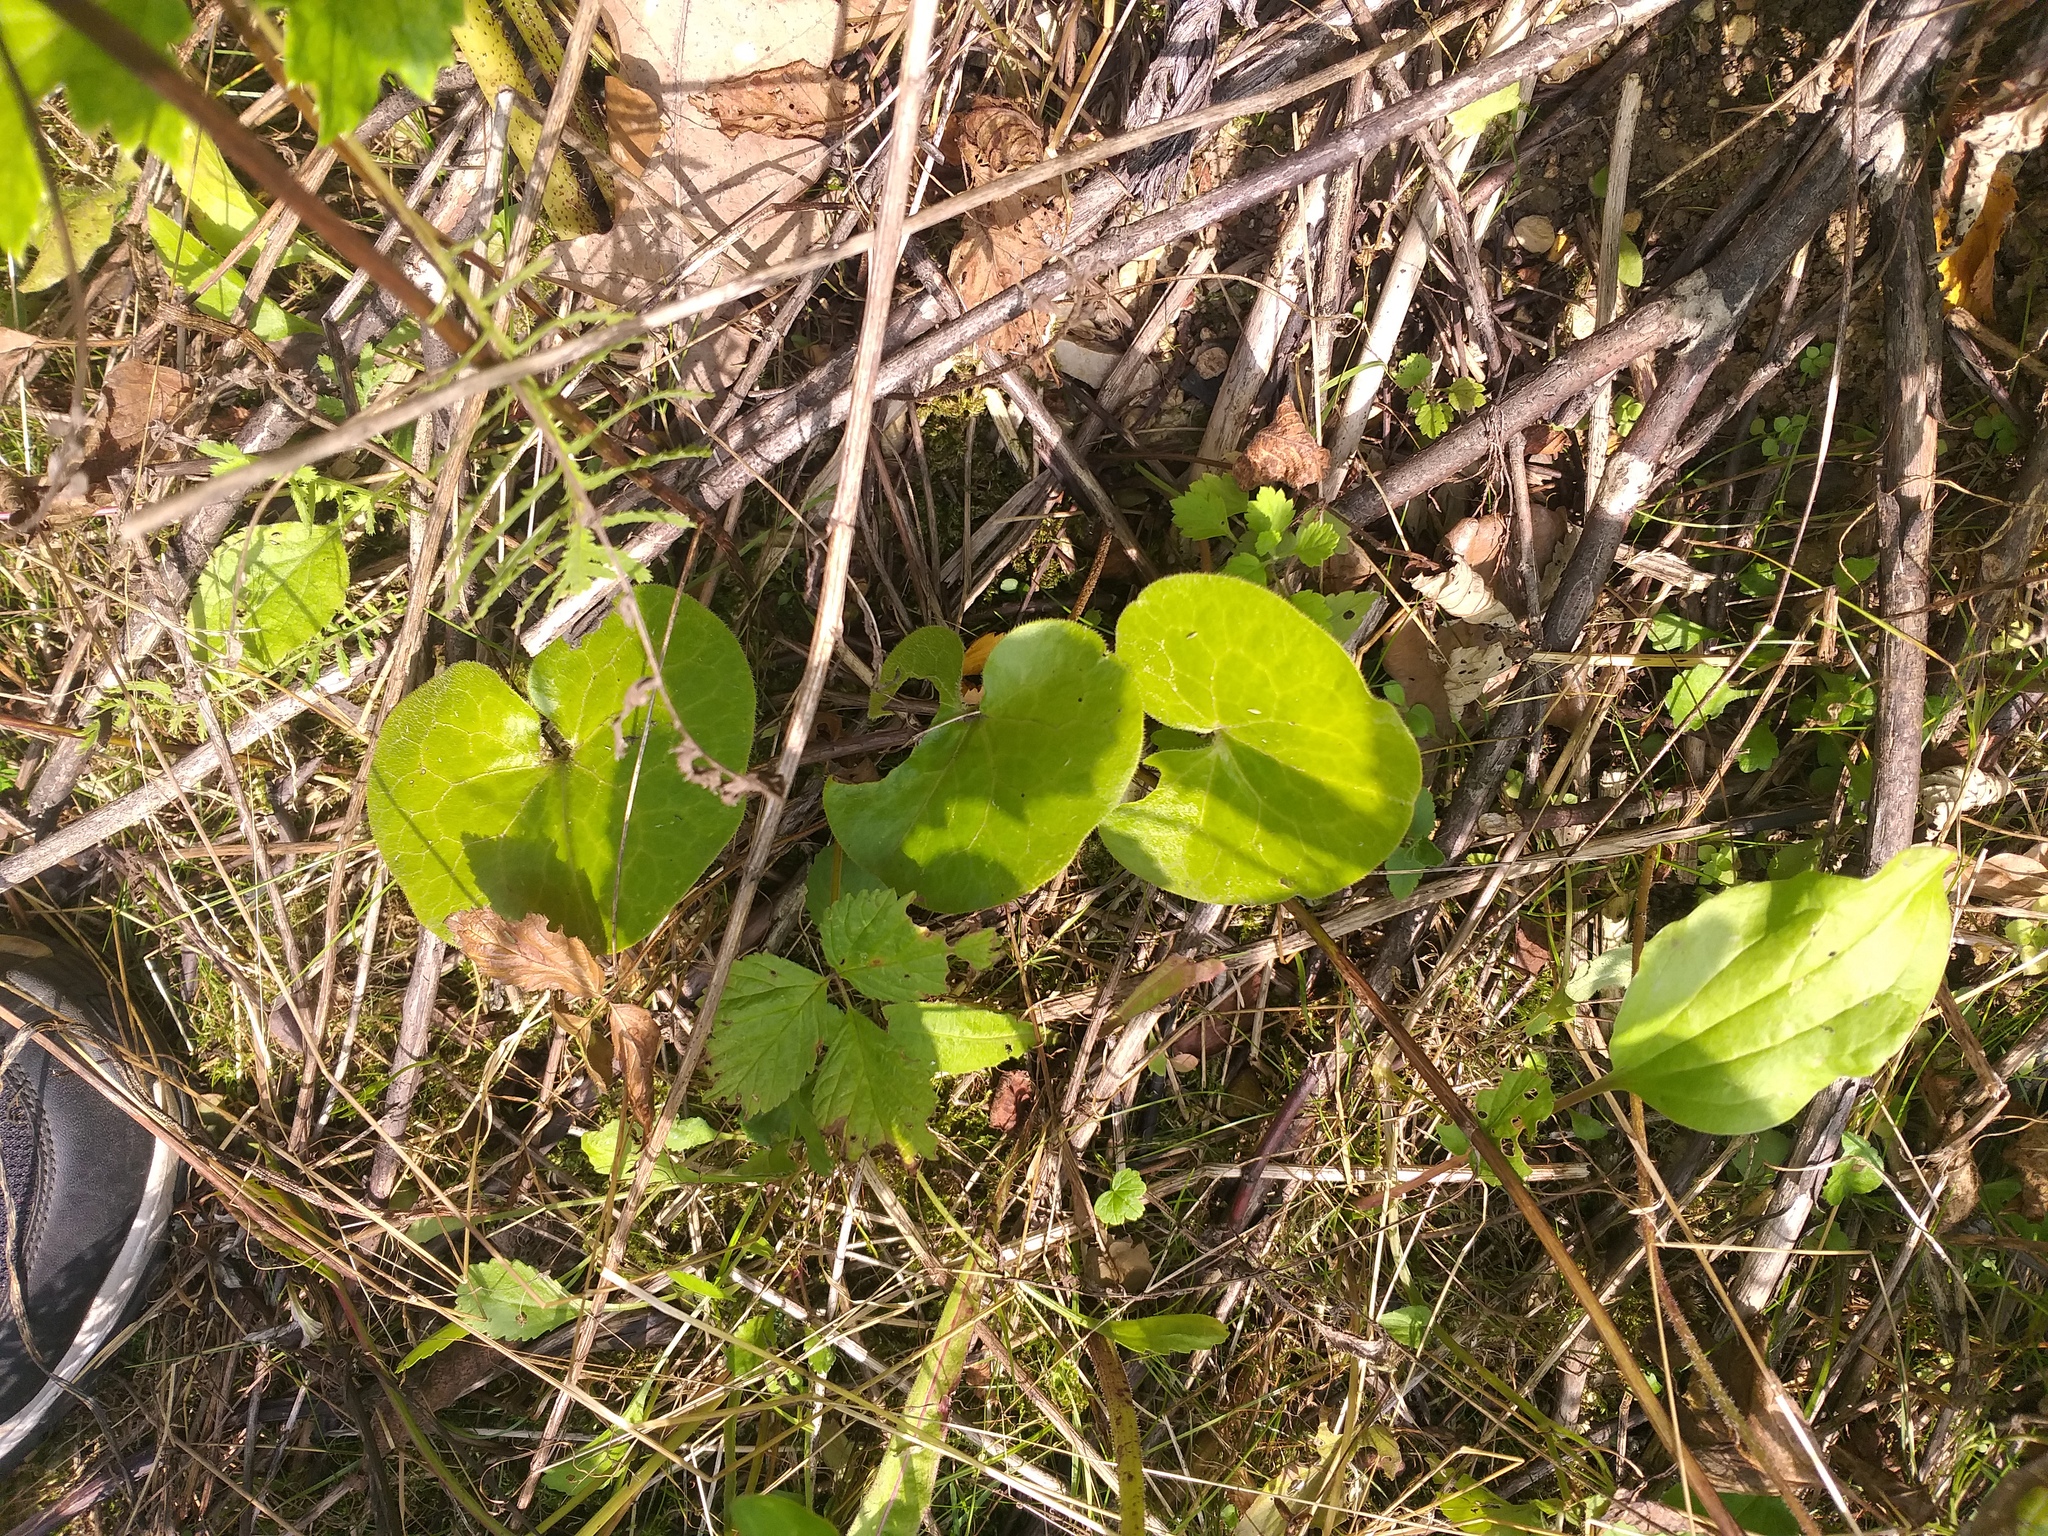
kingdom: Plantae
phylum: Tracheophyta
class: Magnoliopsida
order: Piperales
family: Aristolochiaceae
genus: Asarum
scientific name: Asarum europaeum
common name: Asarabacca
